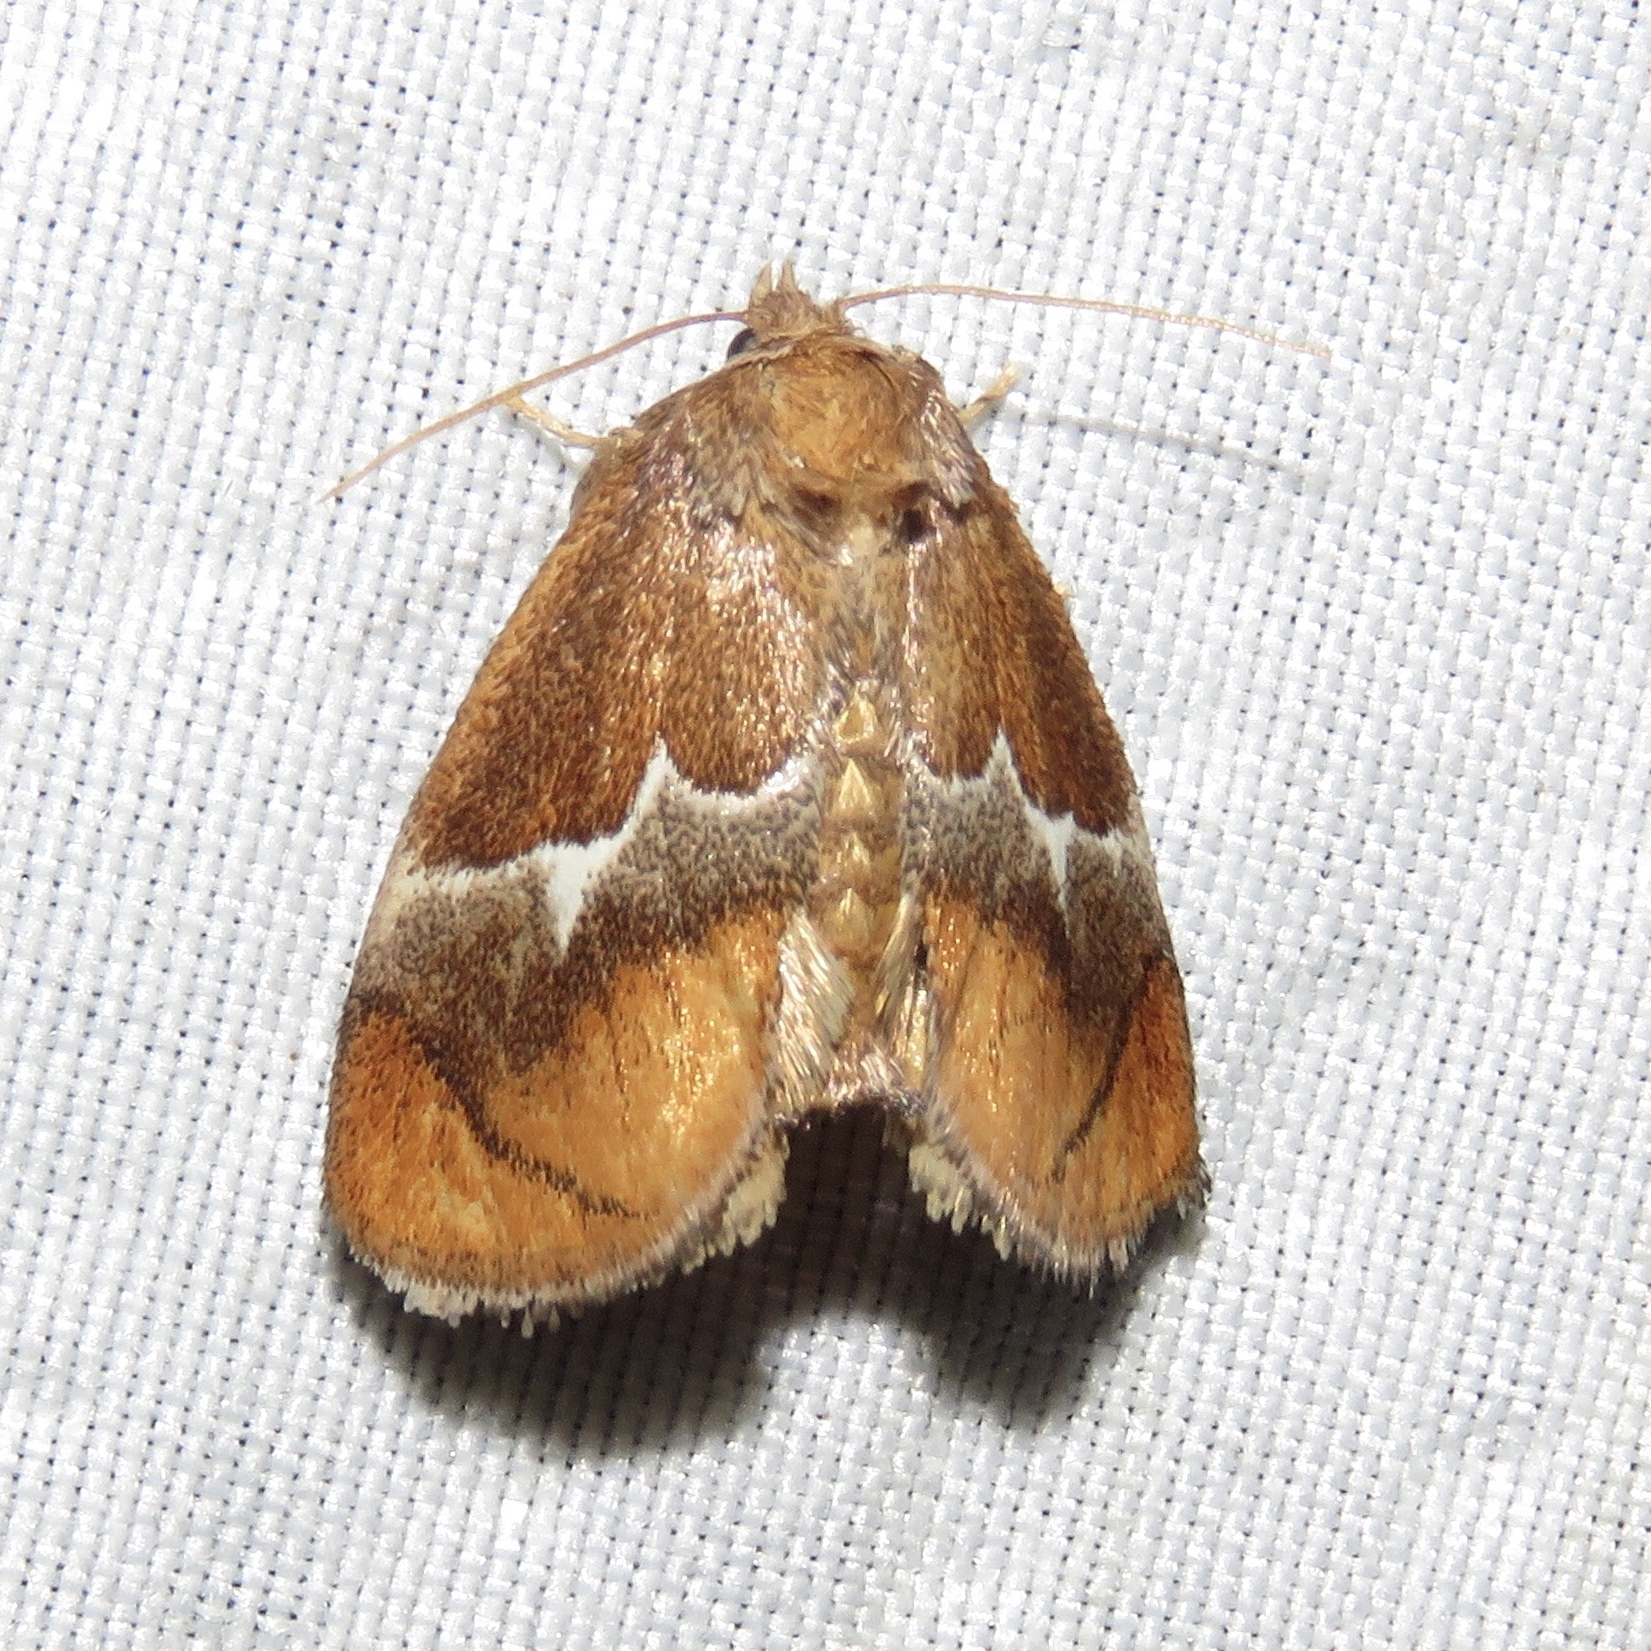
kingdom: Animalia
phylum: Arthropoda
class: Insecta
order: Lepidoptera
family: Limacodidae
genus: Lithacodes
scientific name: Lithacodes fasciola
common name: Yellow-shouldered slug moth
